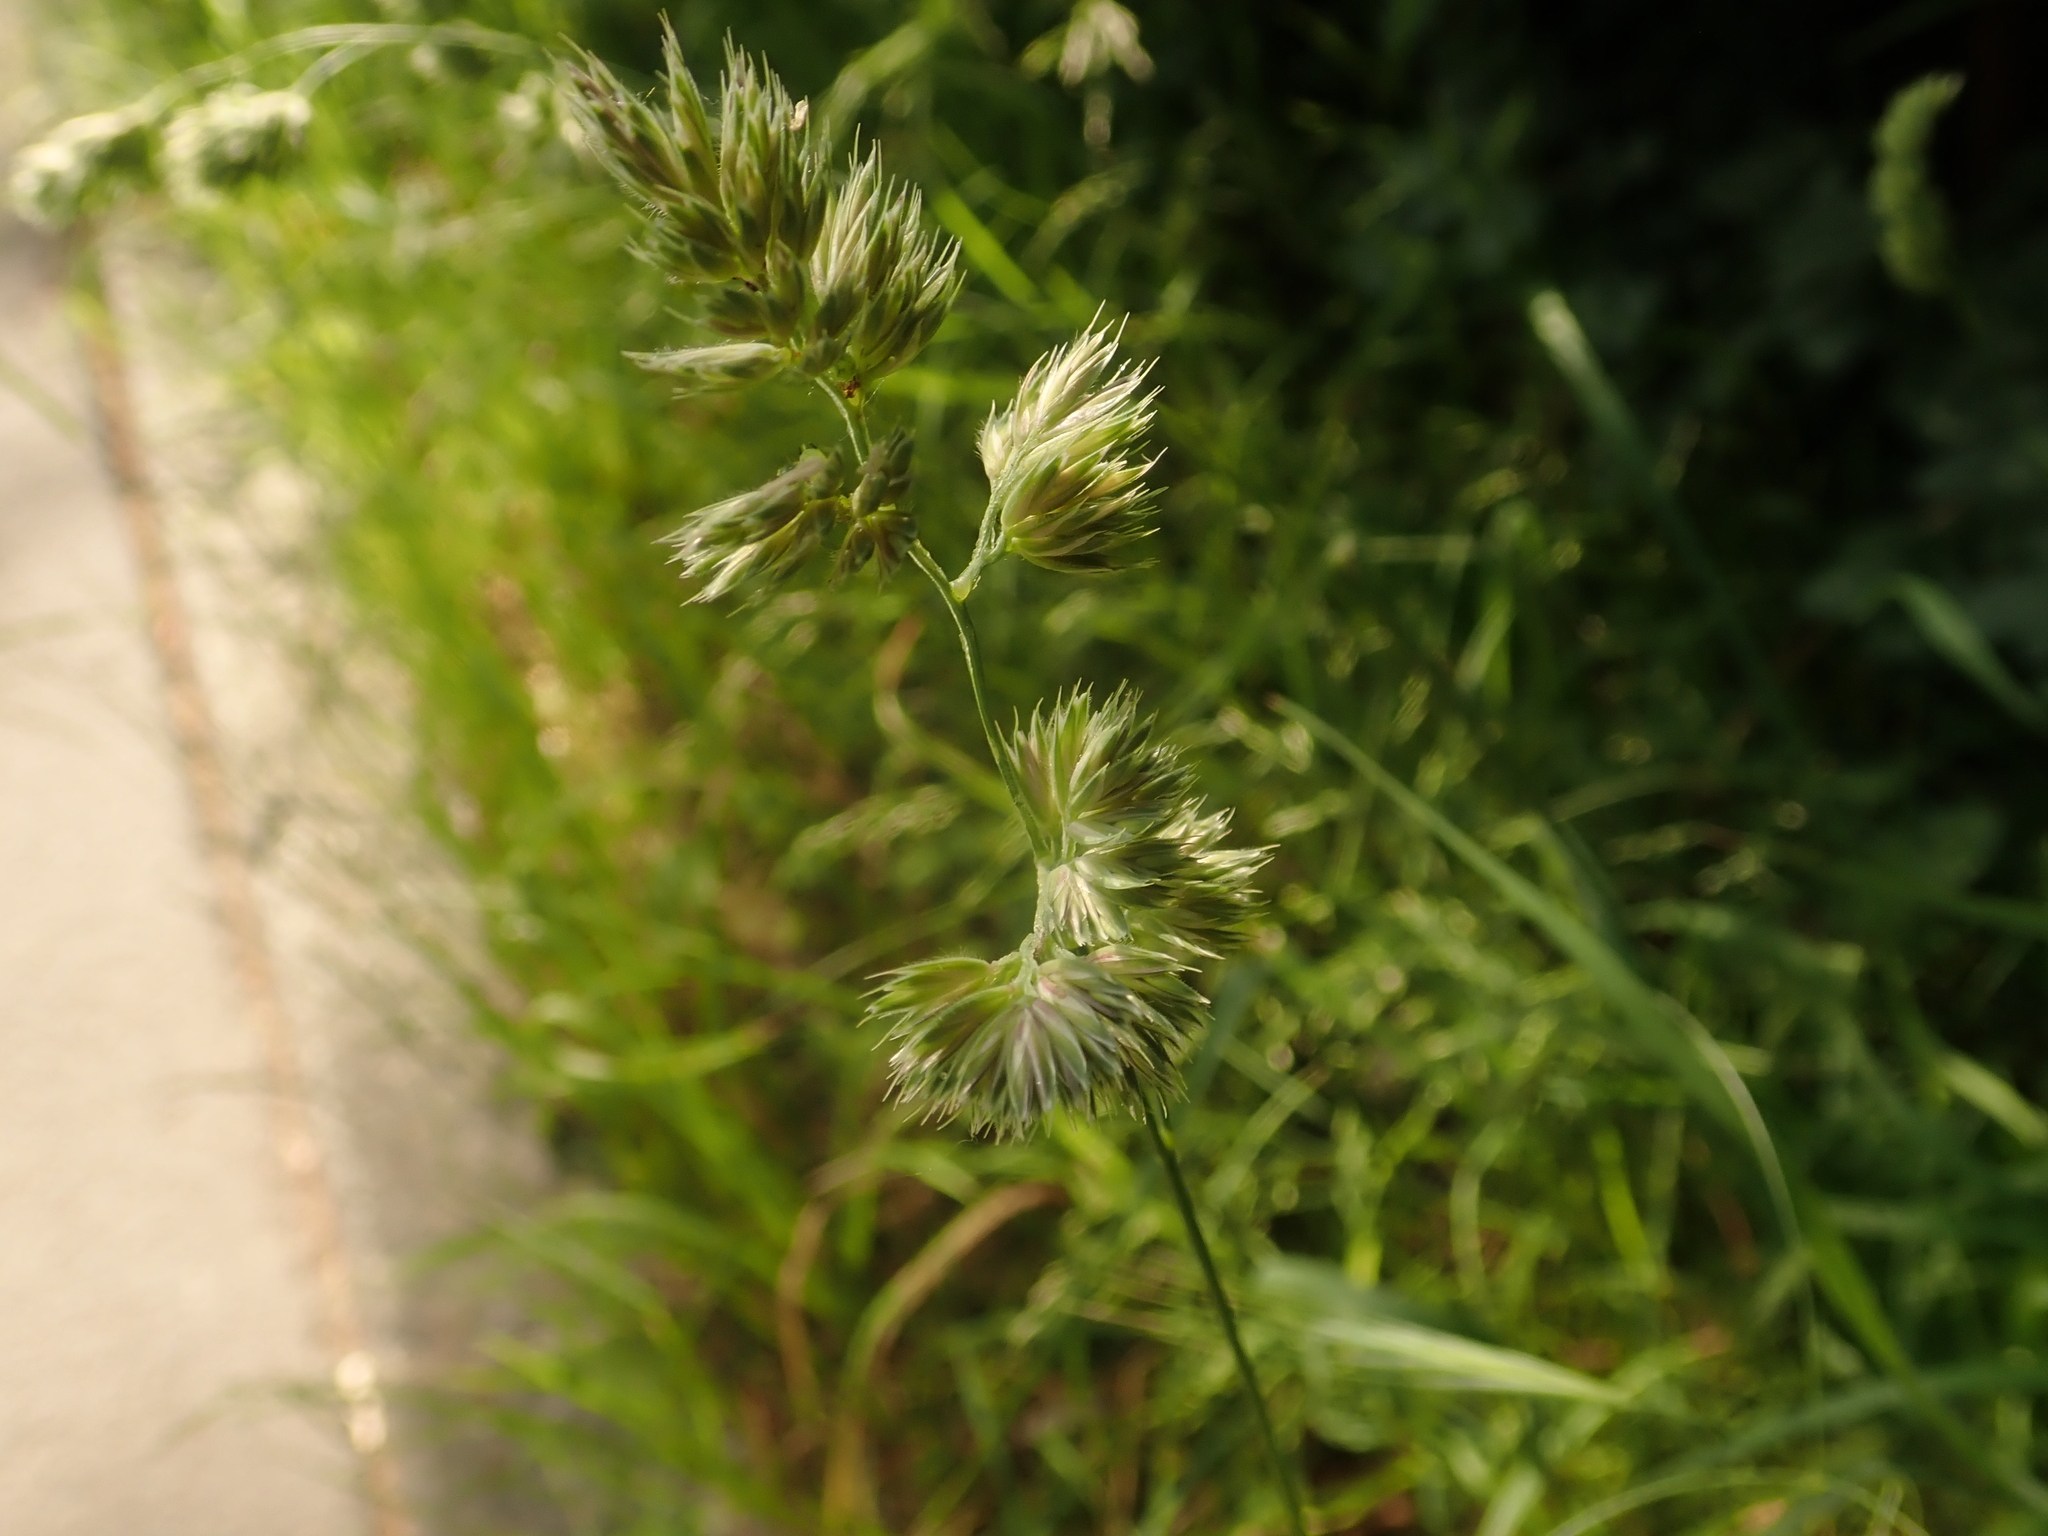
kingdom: Plantae
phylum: Tracheophyta
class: Liliopsida
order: Poales
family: Poaceae
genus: Dactylis
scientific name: Dactylis glomerata
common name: Orchardgrass
